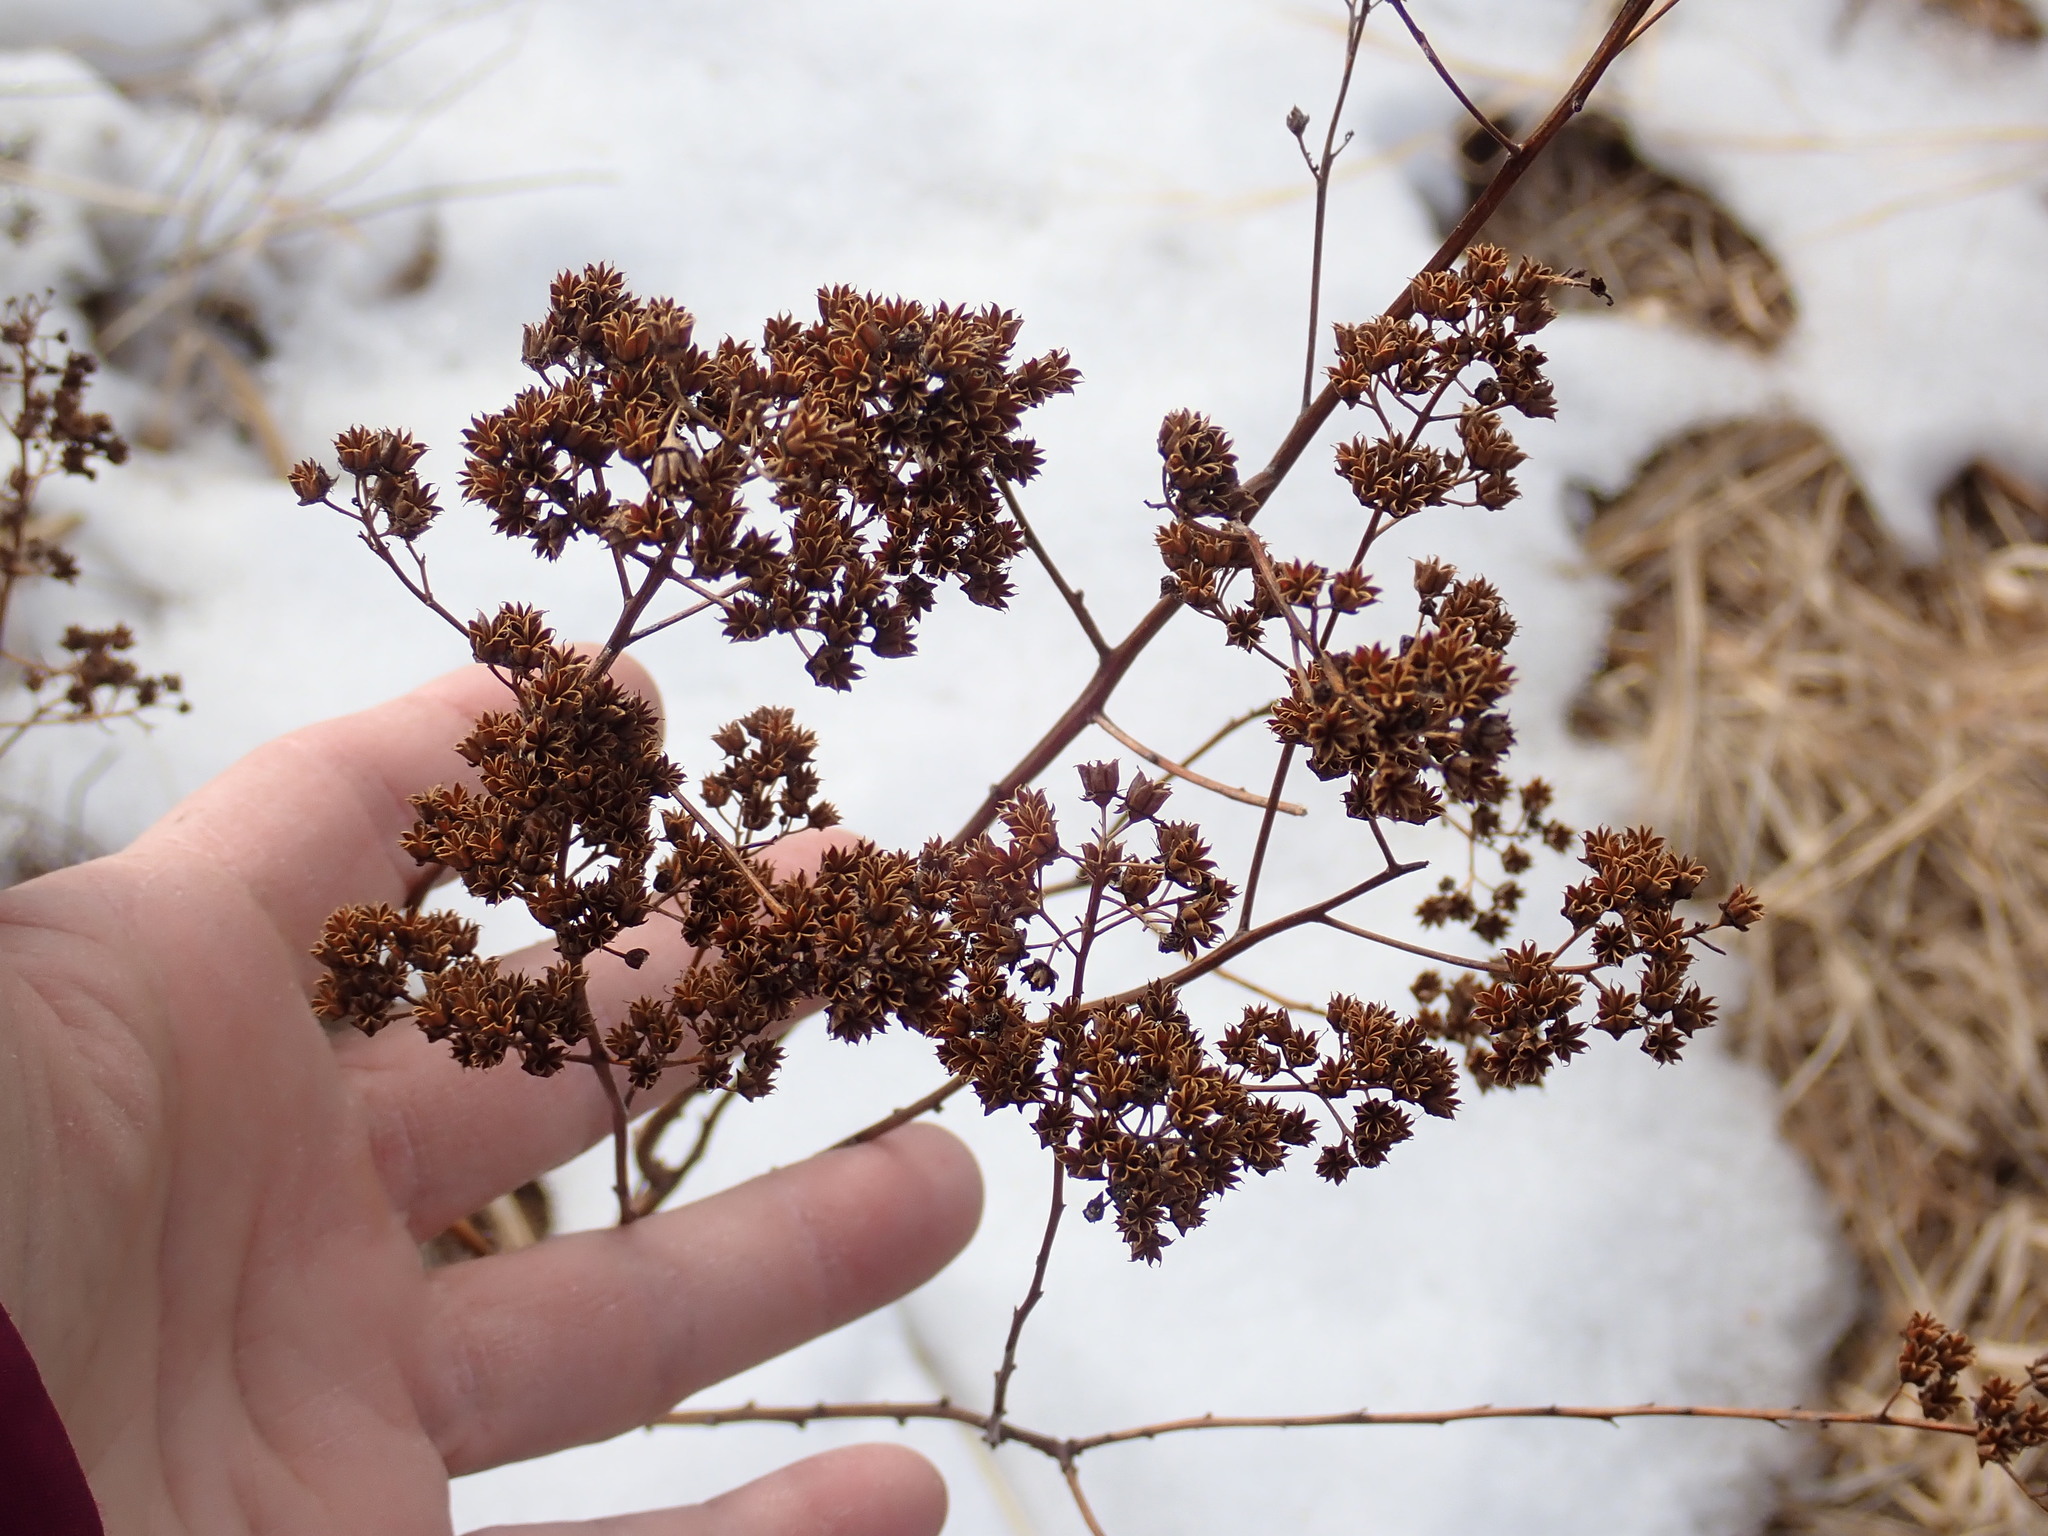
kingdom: Plantae
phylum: Tracheophyta
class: Magnoliopsida
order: Rosales
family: Rosaceae
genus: Spiraea
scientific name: Spiraea alba
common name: Pale bridewort
